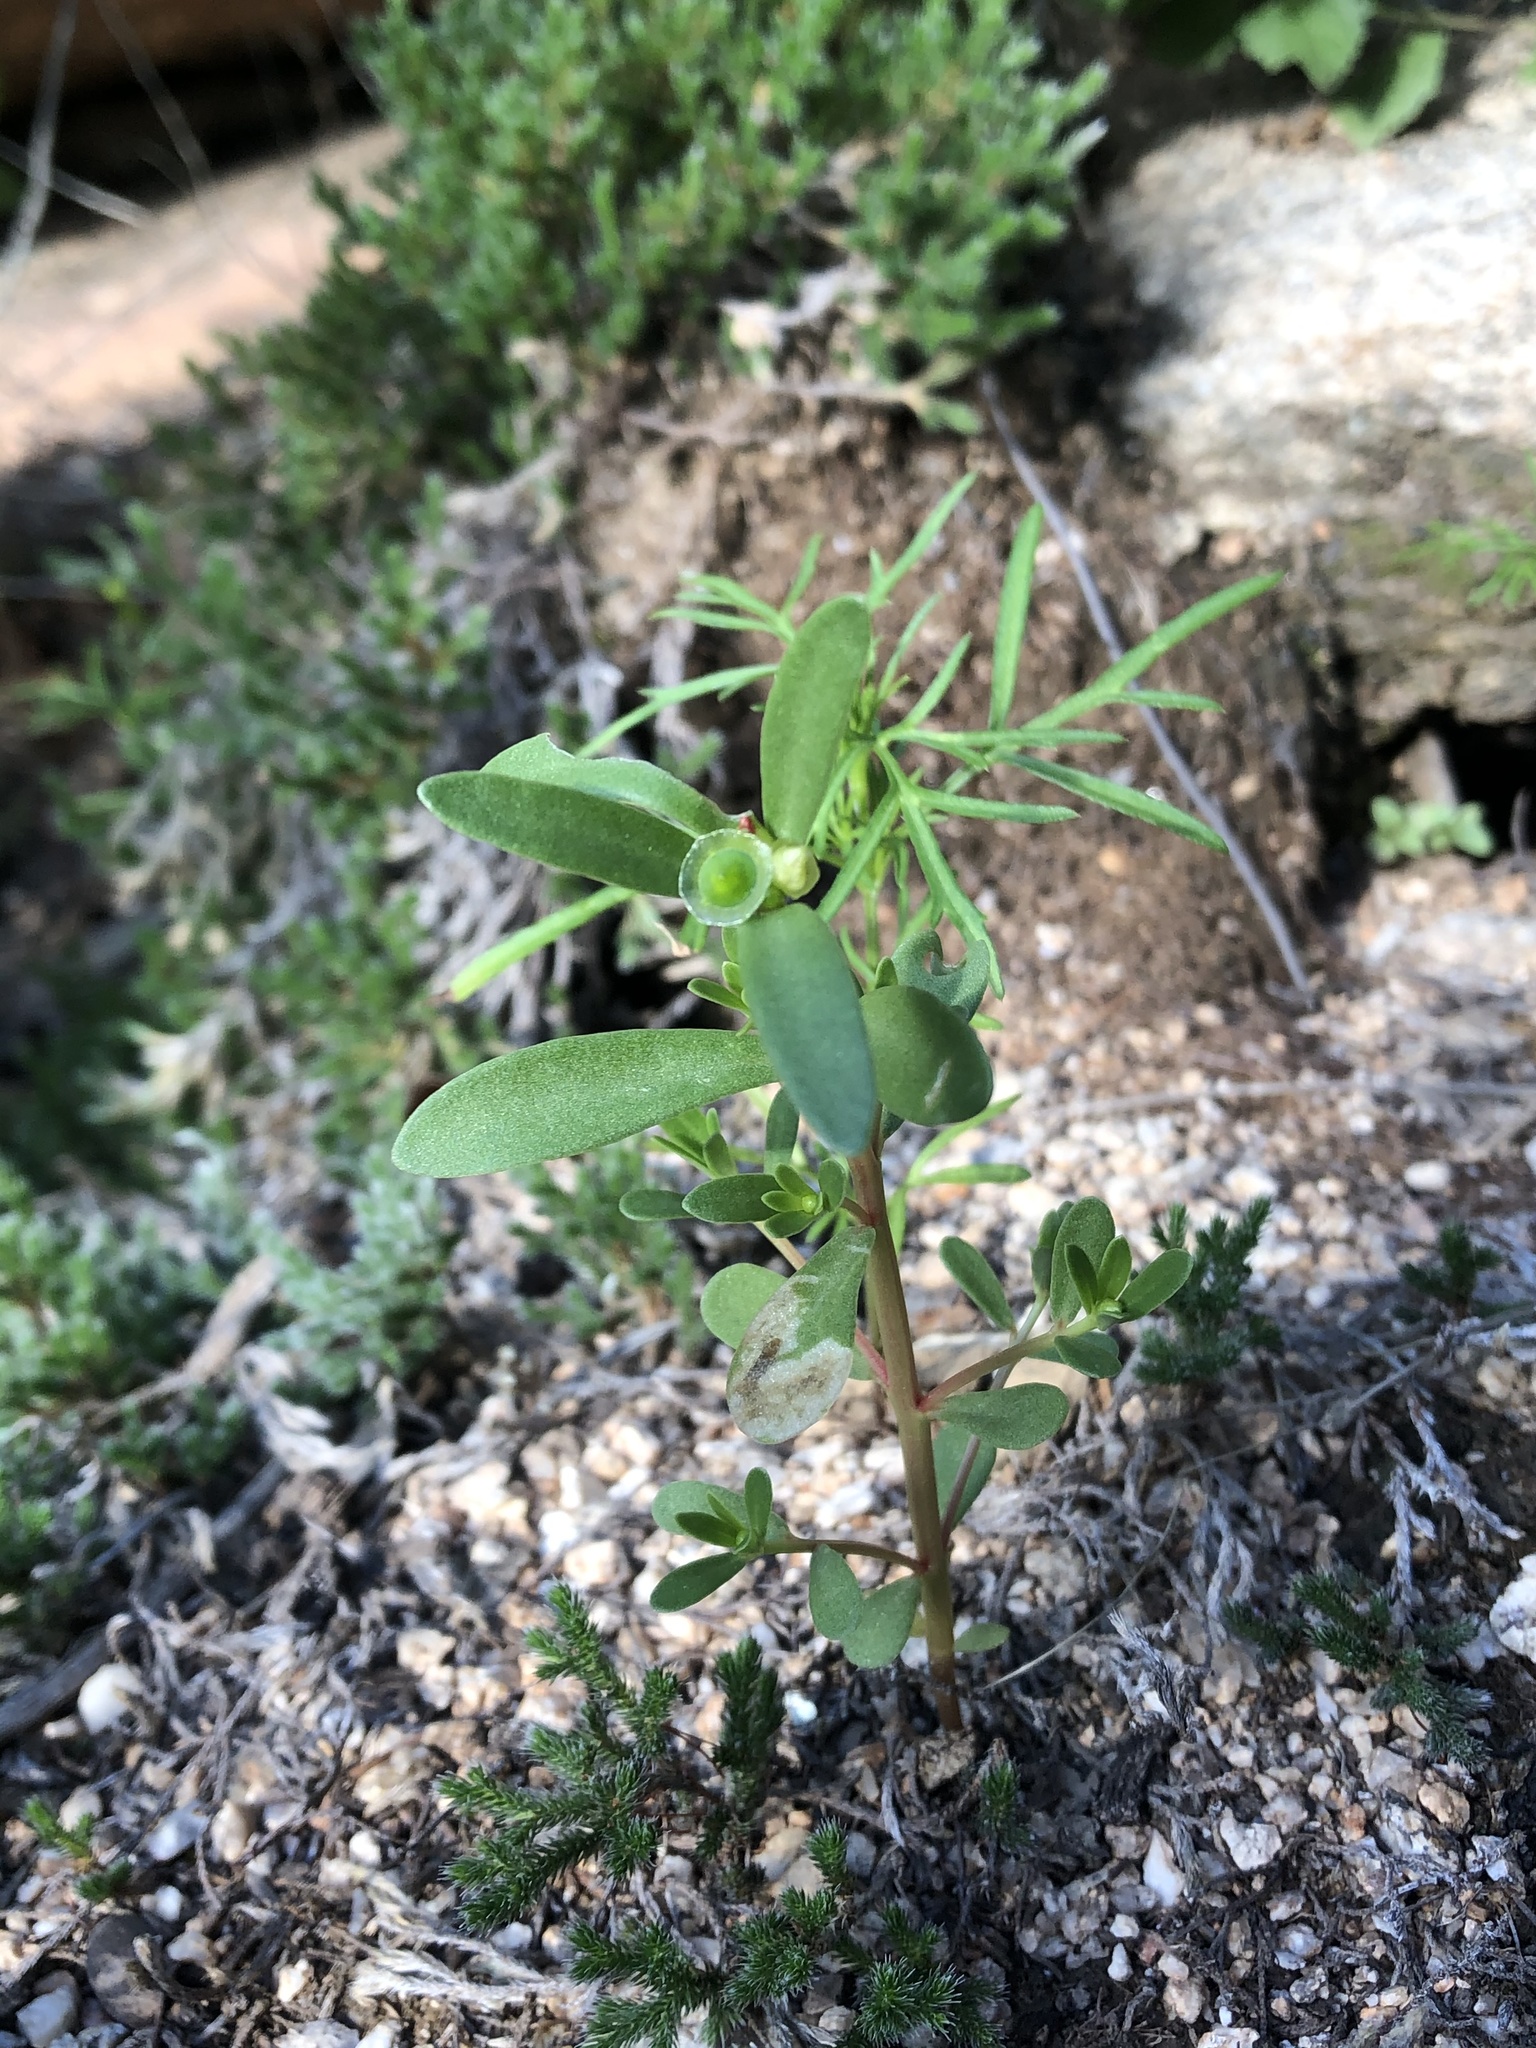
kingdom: Plantae
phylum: Tracheophyta
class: Magnoliopsida
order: Caryophyllales
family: Portulacaceae
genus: Portulaca
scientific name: Portulaca umbraticola
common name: Wingpod purslane
